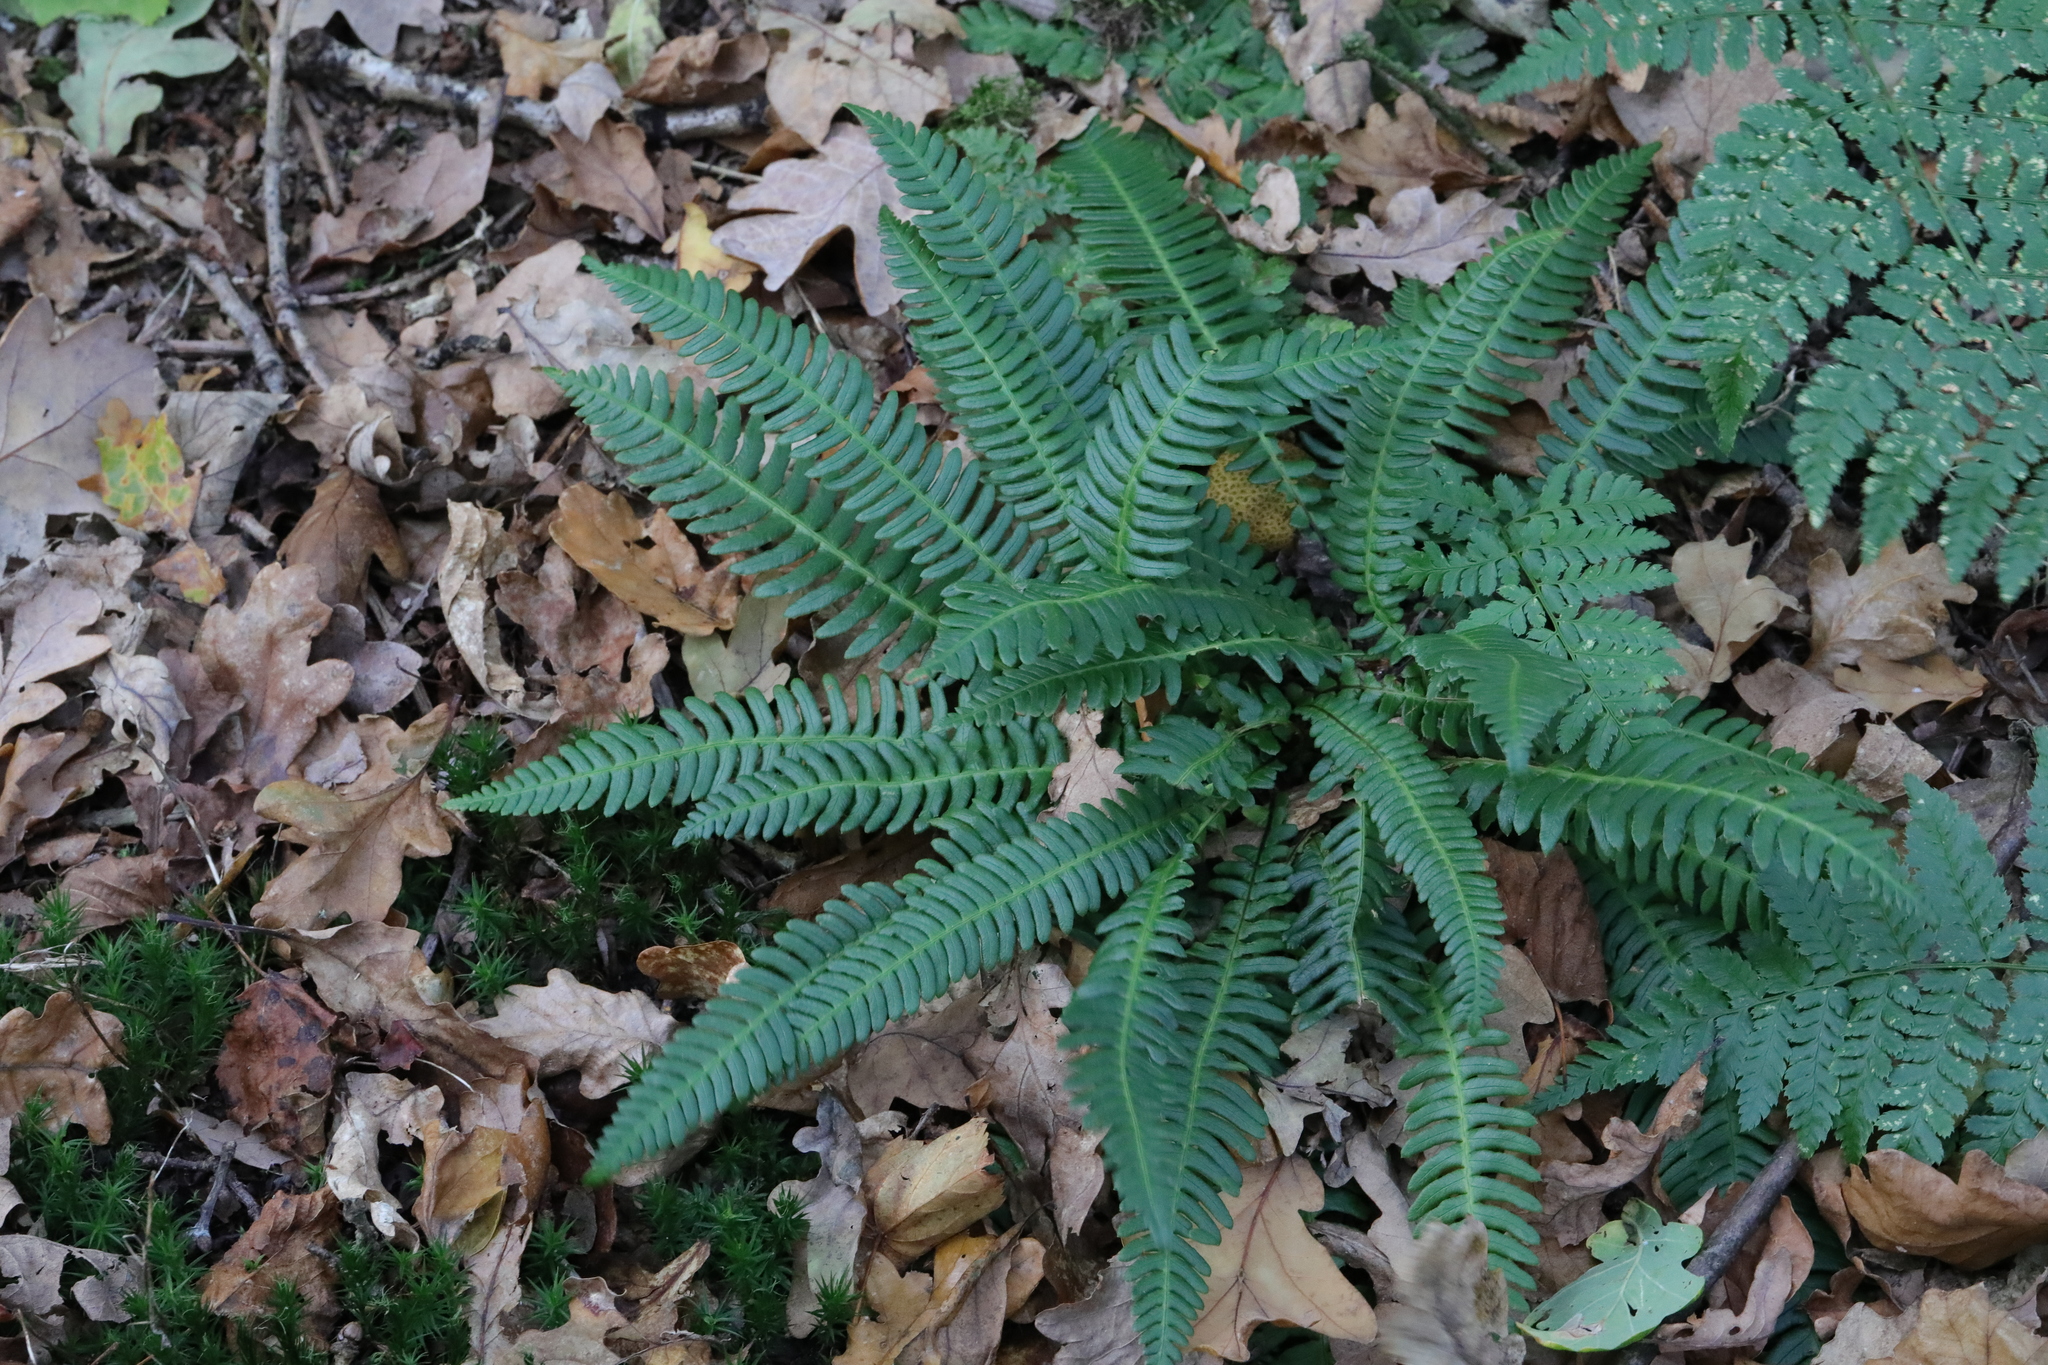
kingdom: Plantae
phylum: Tracheophyta
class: Polypodiopsida
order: Polypodiales
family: Blechnaceae
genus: Struthiopteris
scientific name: Struthiopteris spicant
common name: Deer fern
